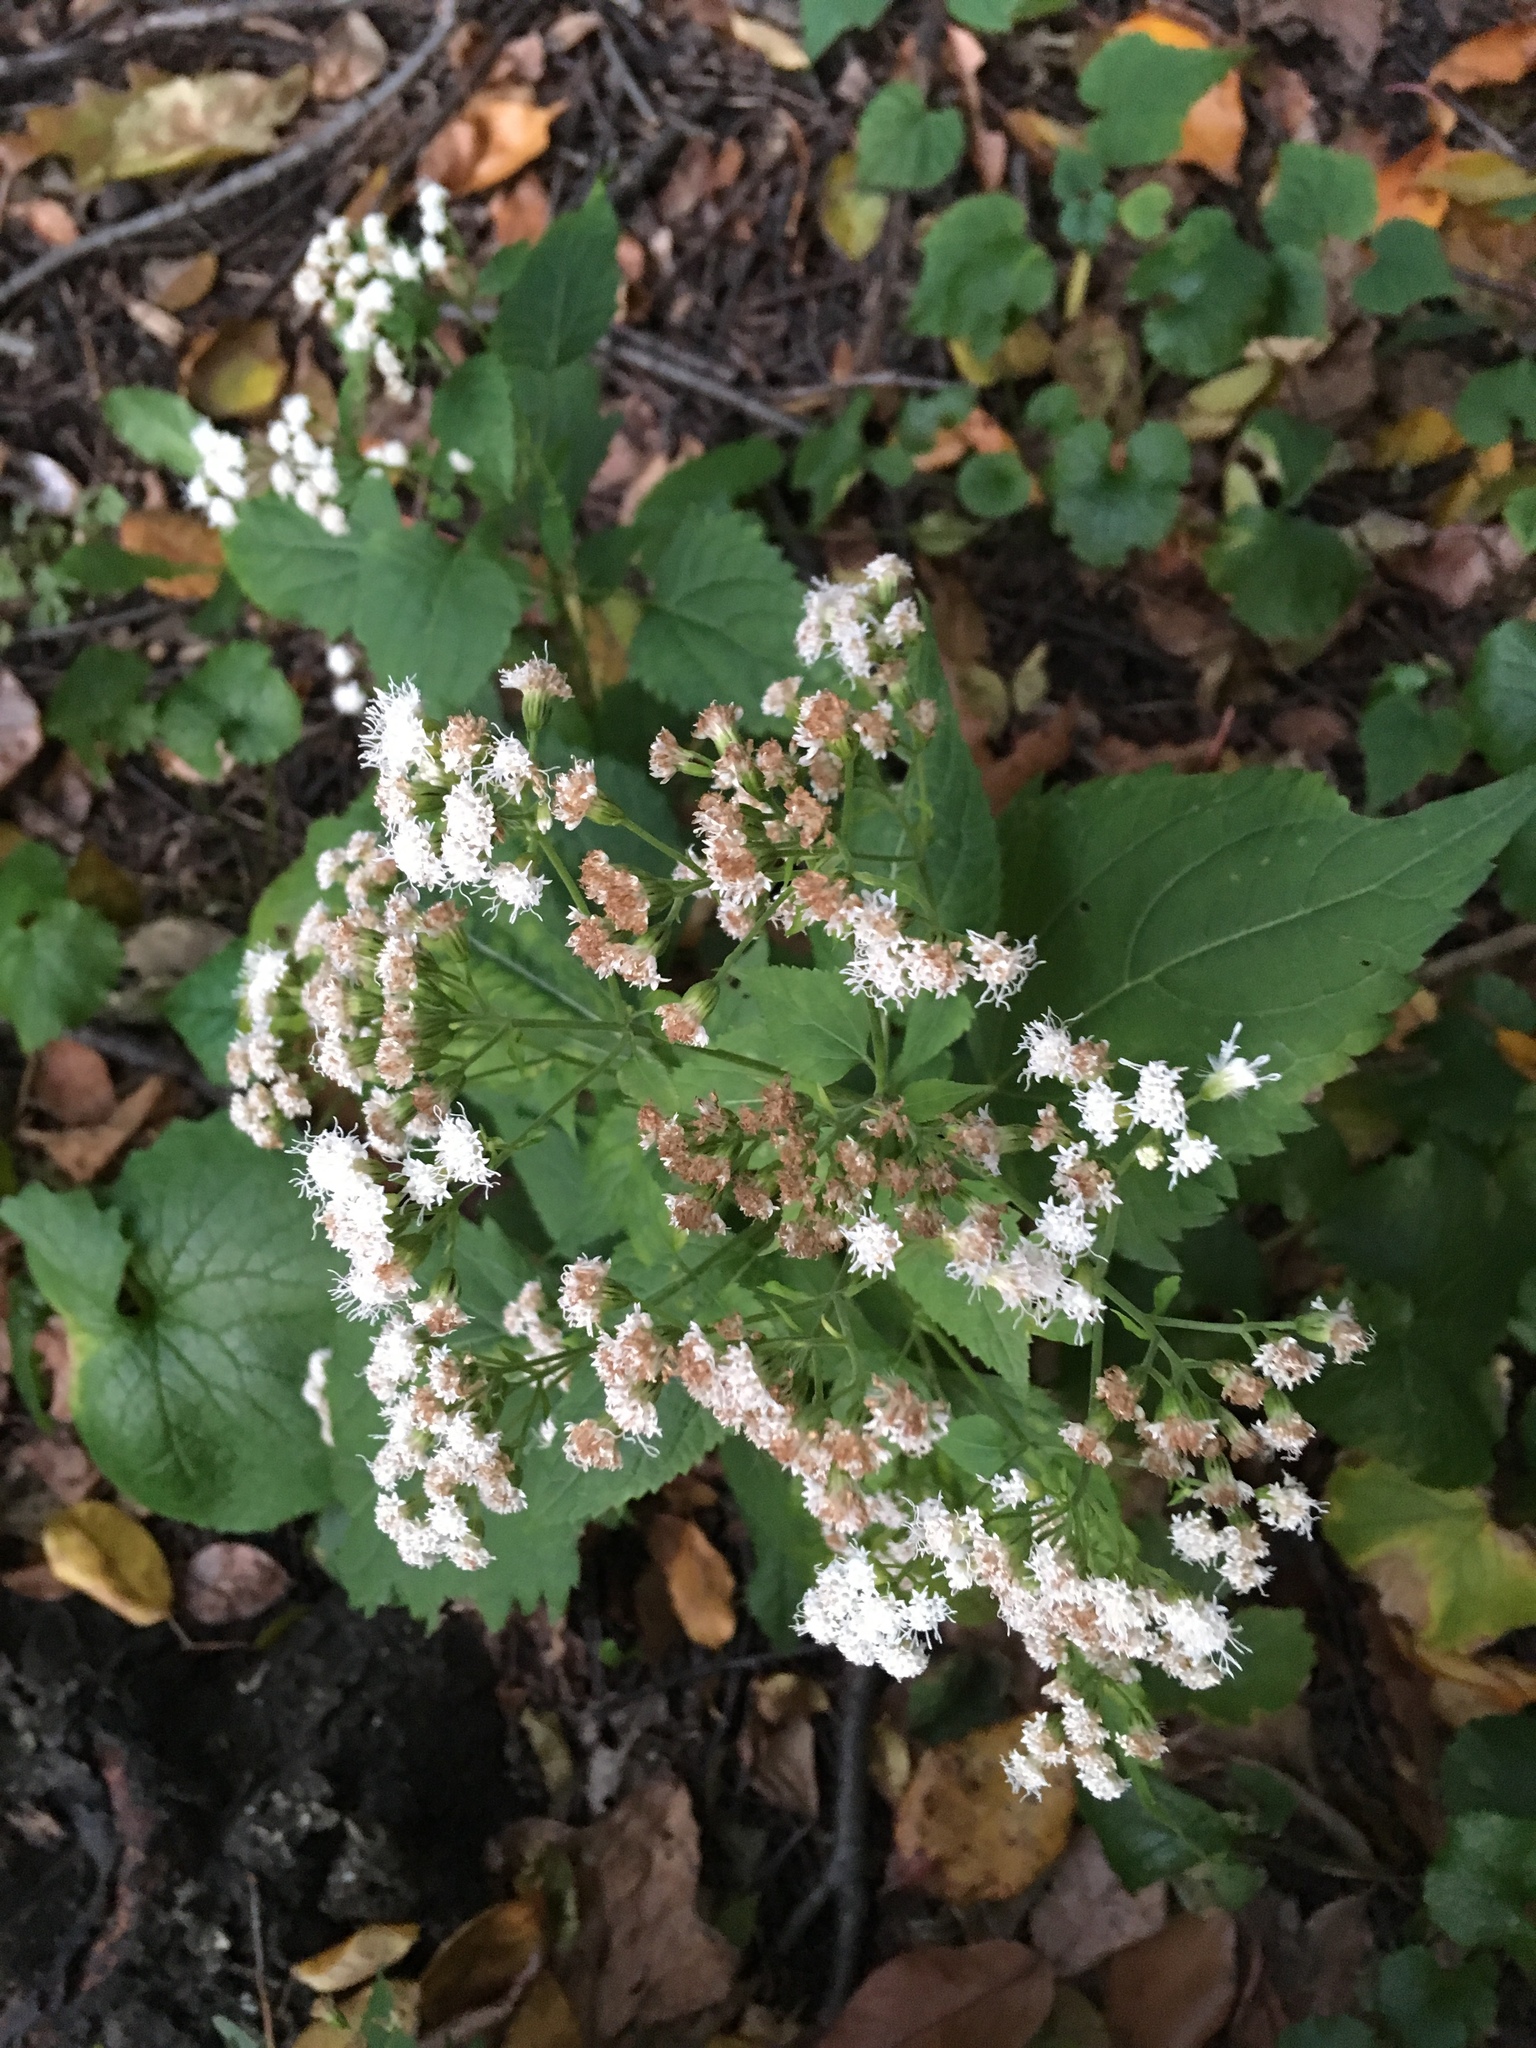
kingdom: Plantae
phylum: Tracheophyta
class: Magnoliopsida
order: Asterales
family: Asteraceae
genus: Ageratina
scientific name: Ageratina altissima
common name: White snakeroot
